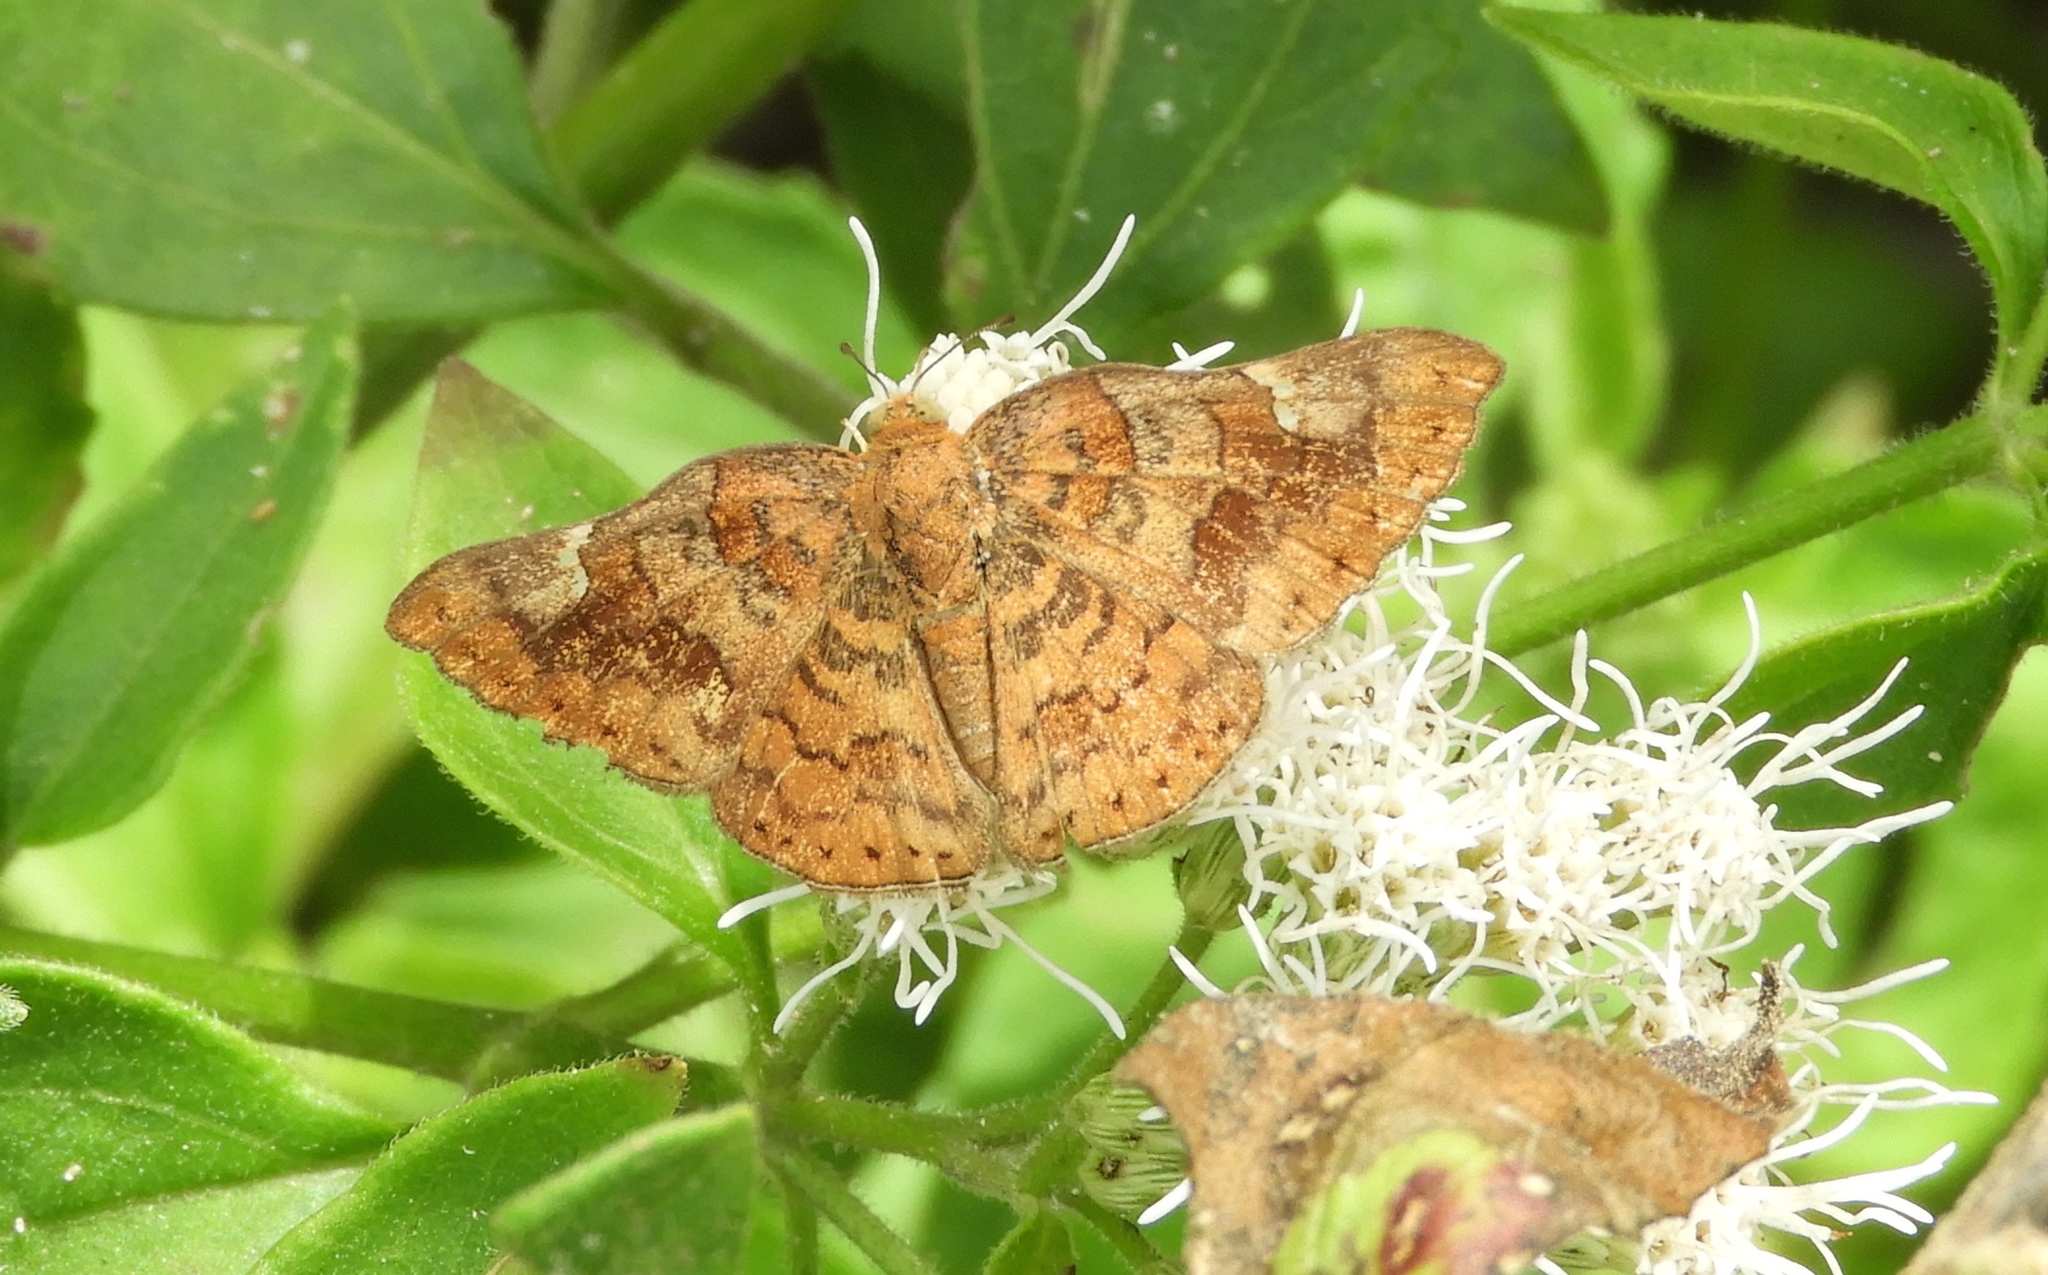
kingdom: Animalia
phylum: Arthropoda
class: Insecta
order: Lepidoptera
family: Riodinidae
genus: Curvie
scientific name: Curvie emesia
